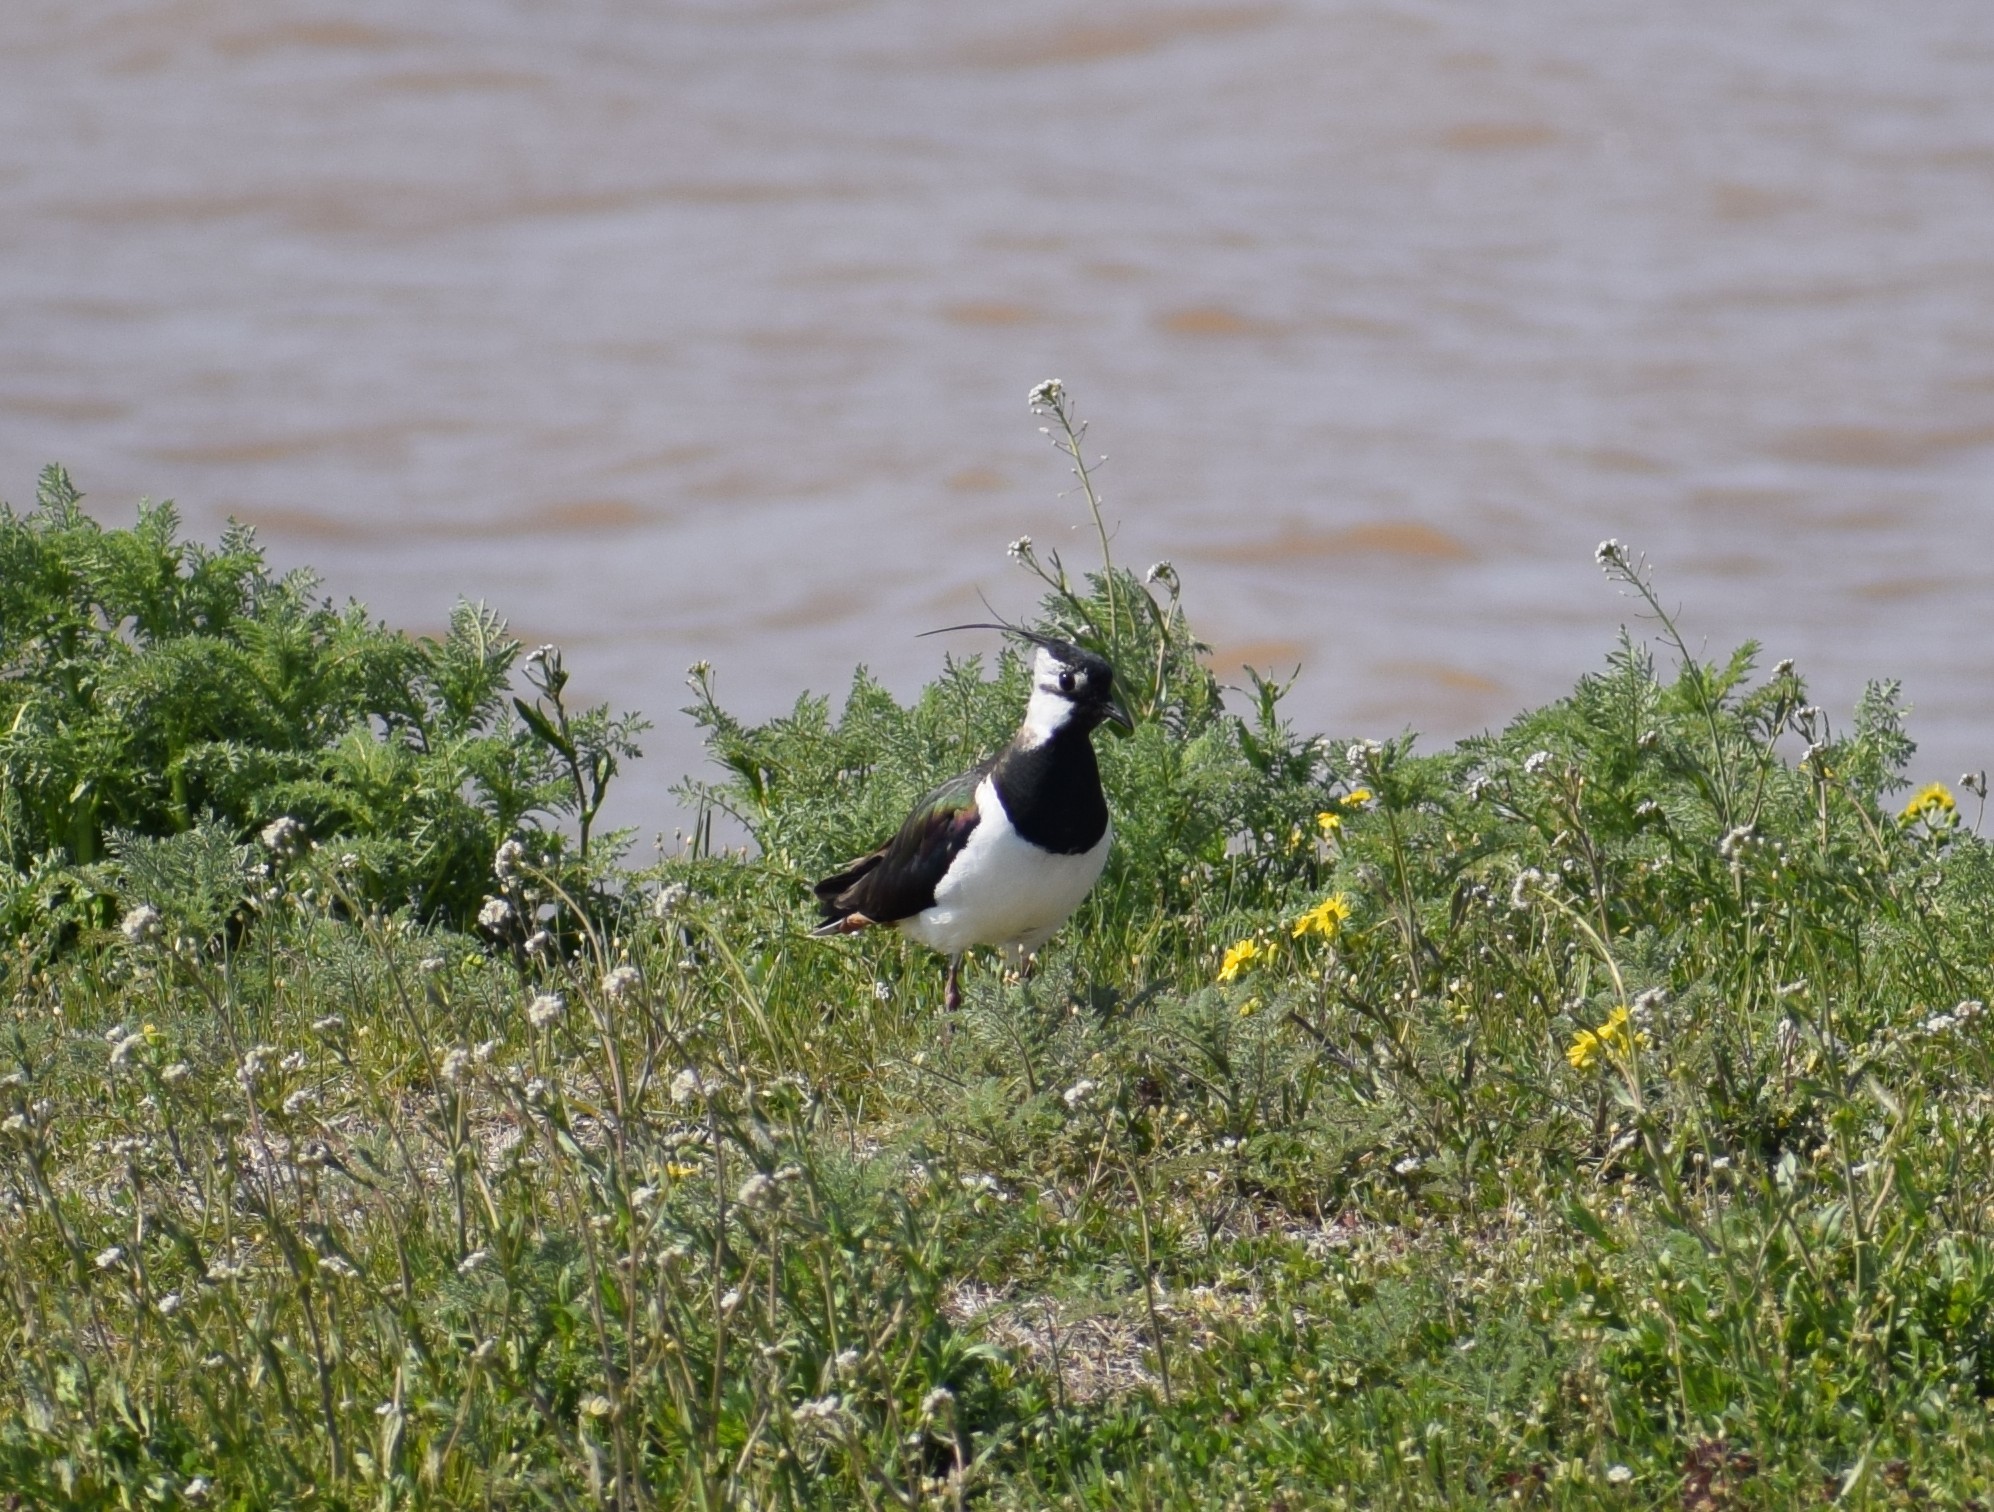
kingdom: Animalia
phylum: Chordata
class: Aves
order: Charadriiformes
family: Charadriidae
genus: Vanellus
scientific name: Vanellus vanellus
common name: Northern lapwing
